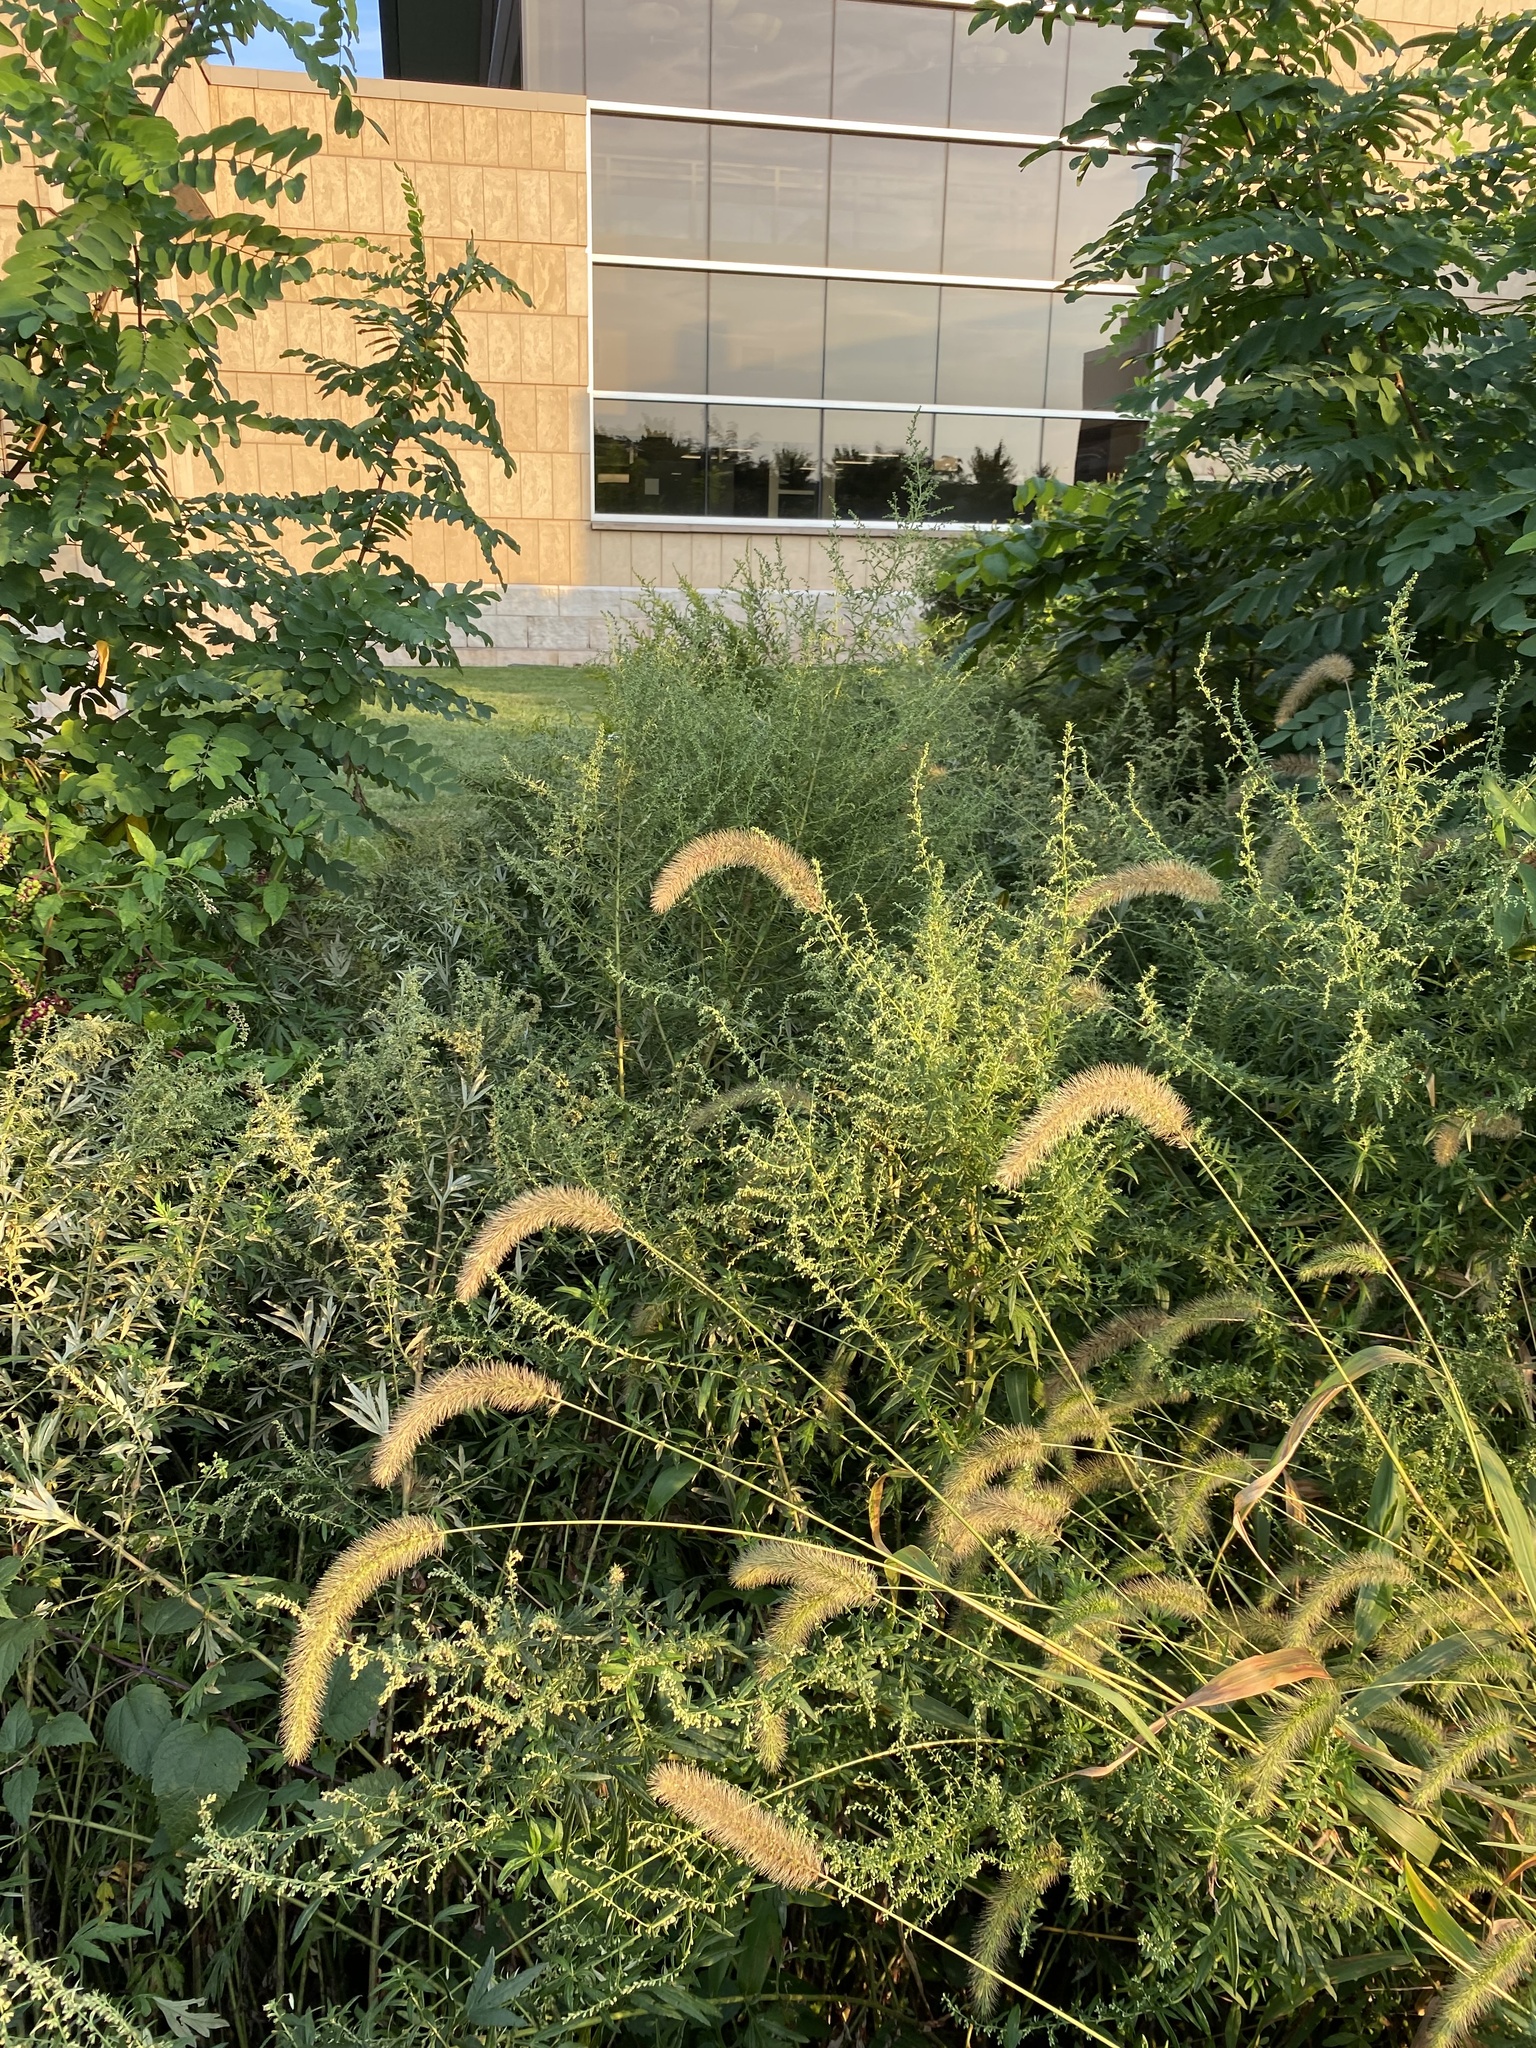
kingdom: Plantae
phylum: Tracheophyta
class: Liliopsida
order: Poales
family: Poaceae
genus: Setaria
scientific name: Setaria faberi
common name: Nodding bristle-grass
